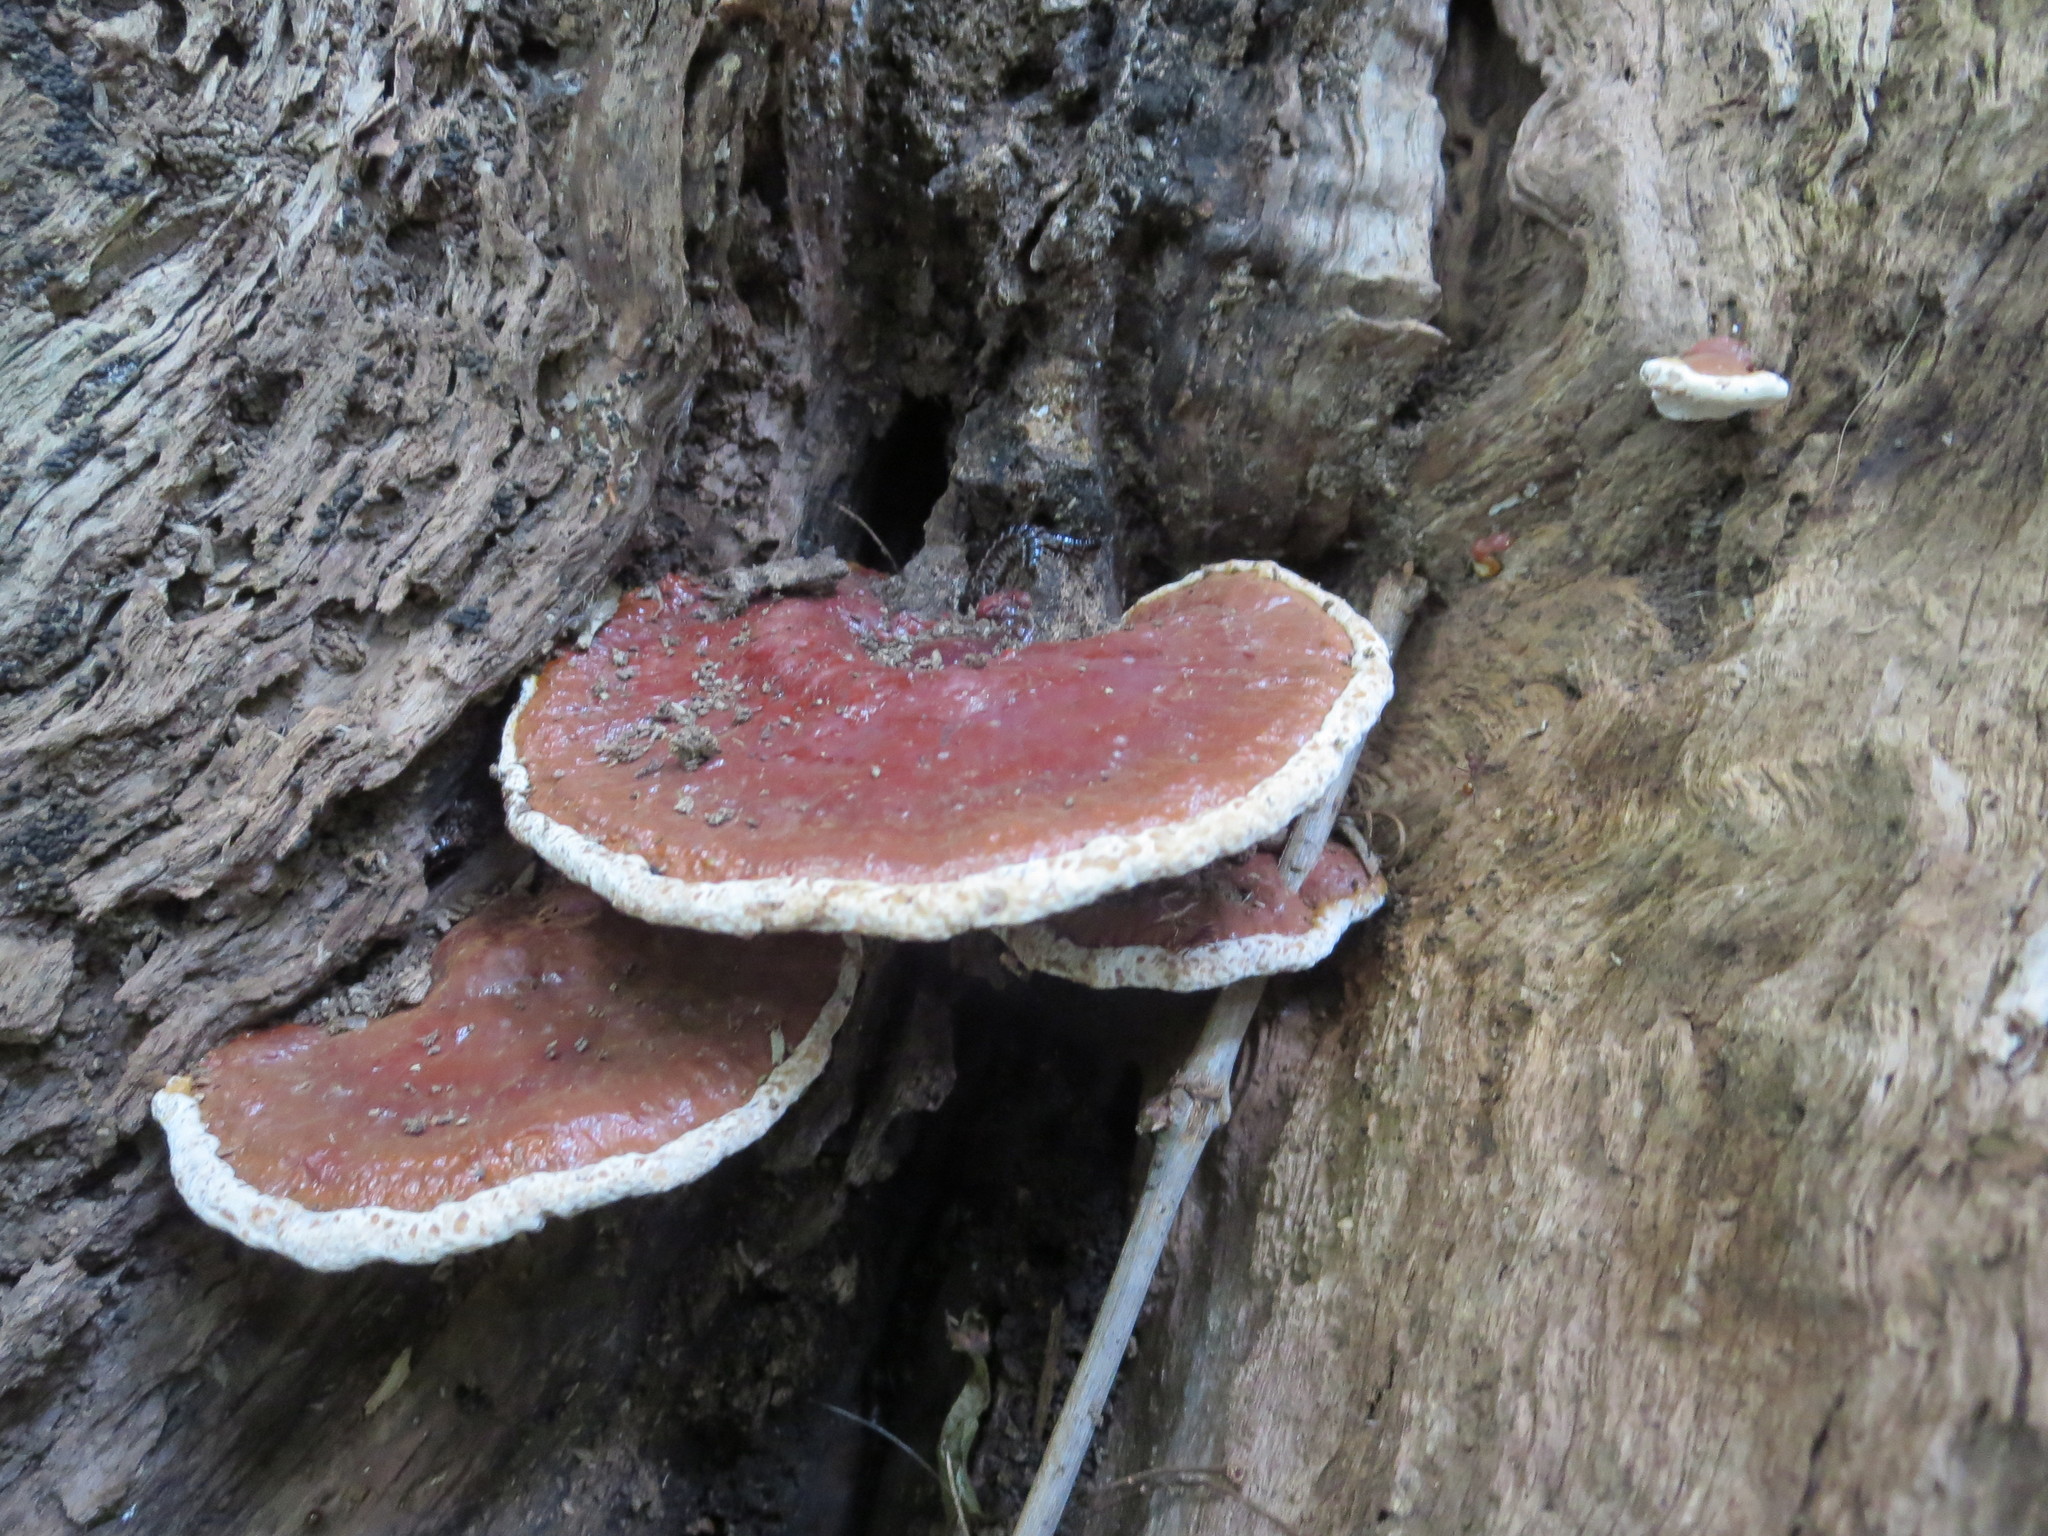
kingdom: Fungi
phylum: Basidiomycota
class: Agaricomycetes
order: Polyporales
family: Polyporaceae
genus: Ganoderma
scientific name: Ganoderma resinaceum
